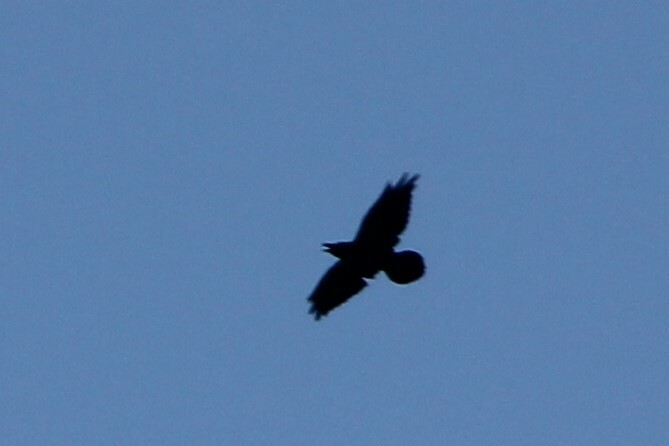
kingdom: Animalia
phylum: Chordata
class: Aves
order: Passeriformes
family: Corvidae
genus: Corvus
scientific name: Corvus corax
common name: Common raven
